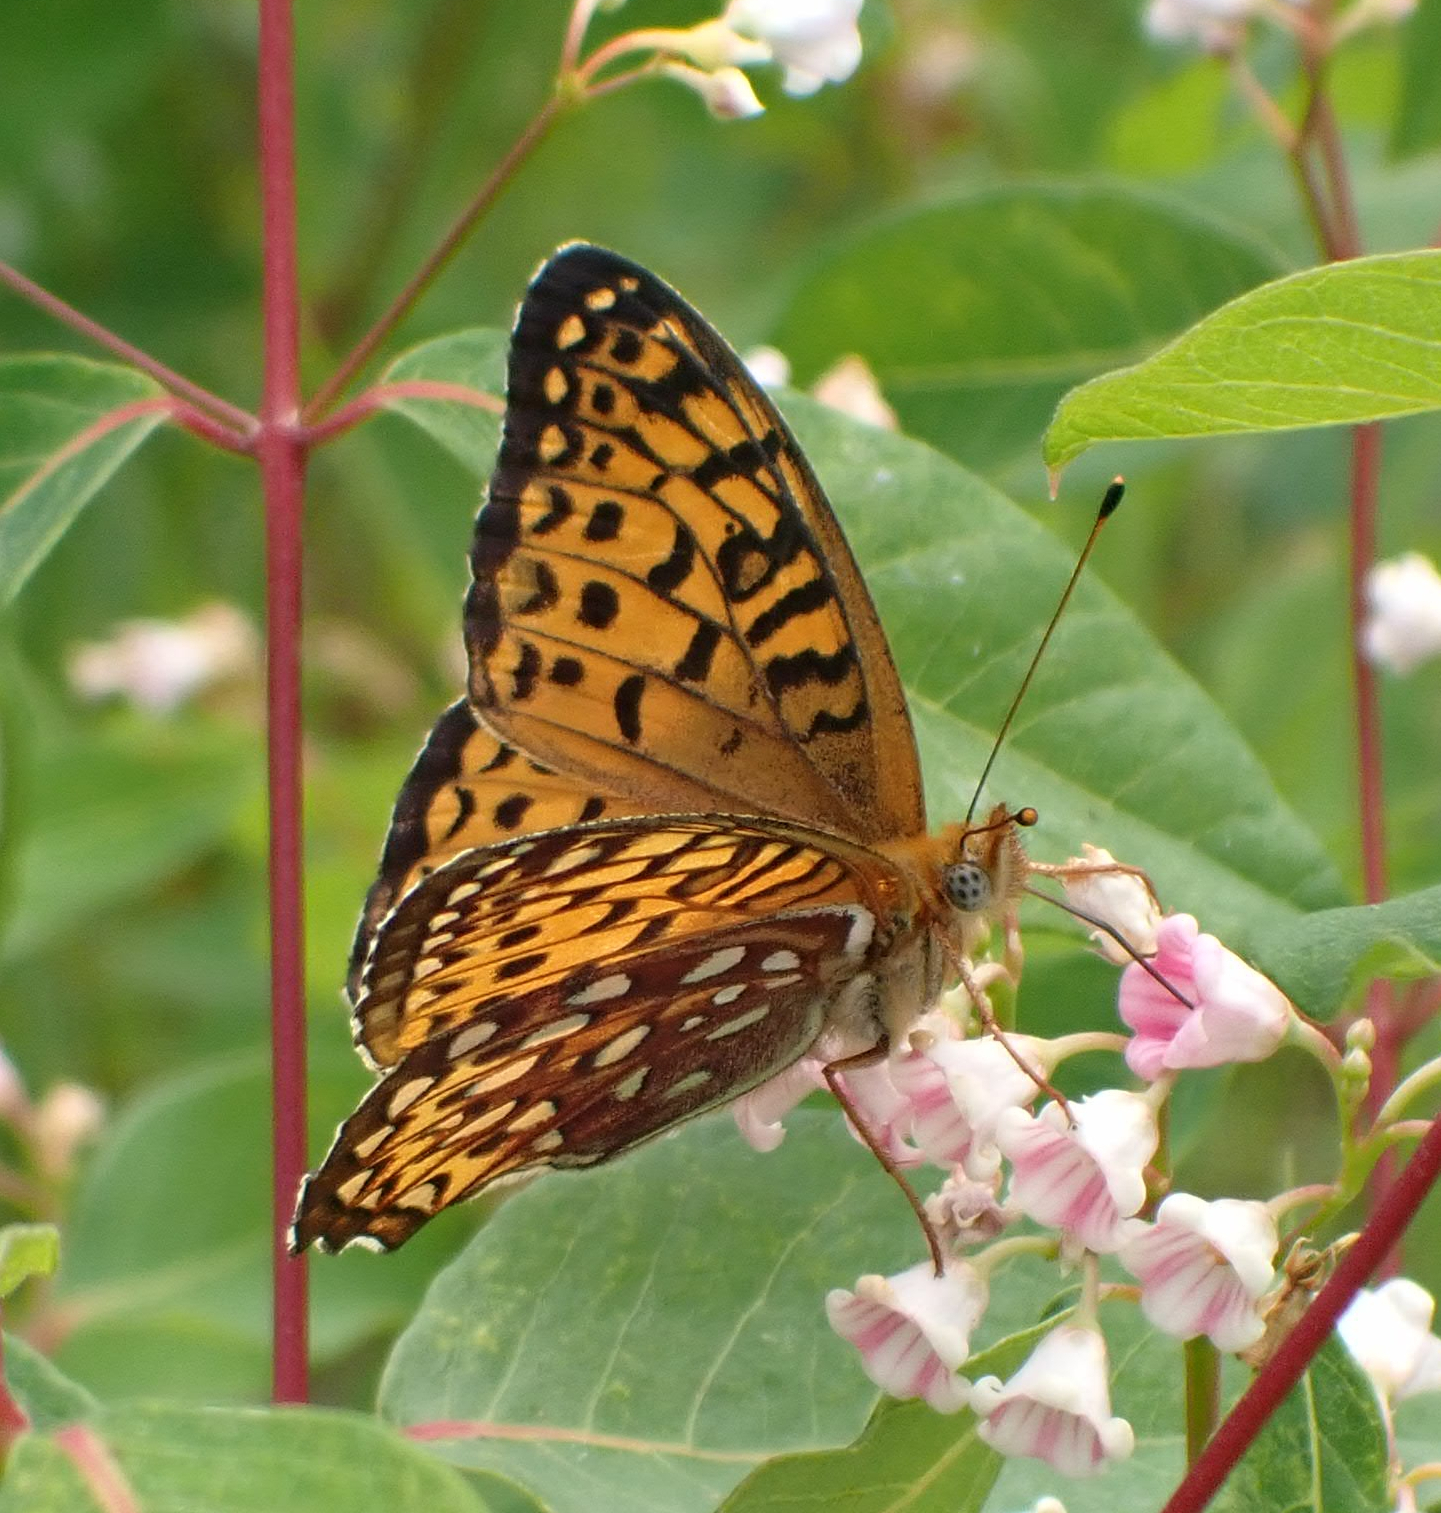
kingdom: Animalia
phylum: Arthropoda
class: Insecta
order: Lepidoptera
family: Nymphalidae
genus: Speyeria
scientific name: Speyeria atlantis
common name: Atlantis fritillary
